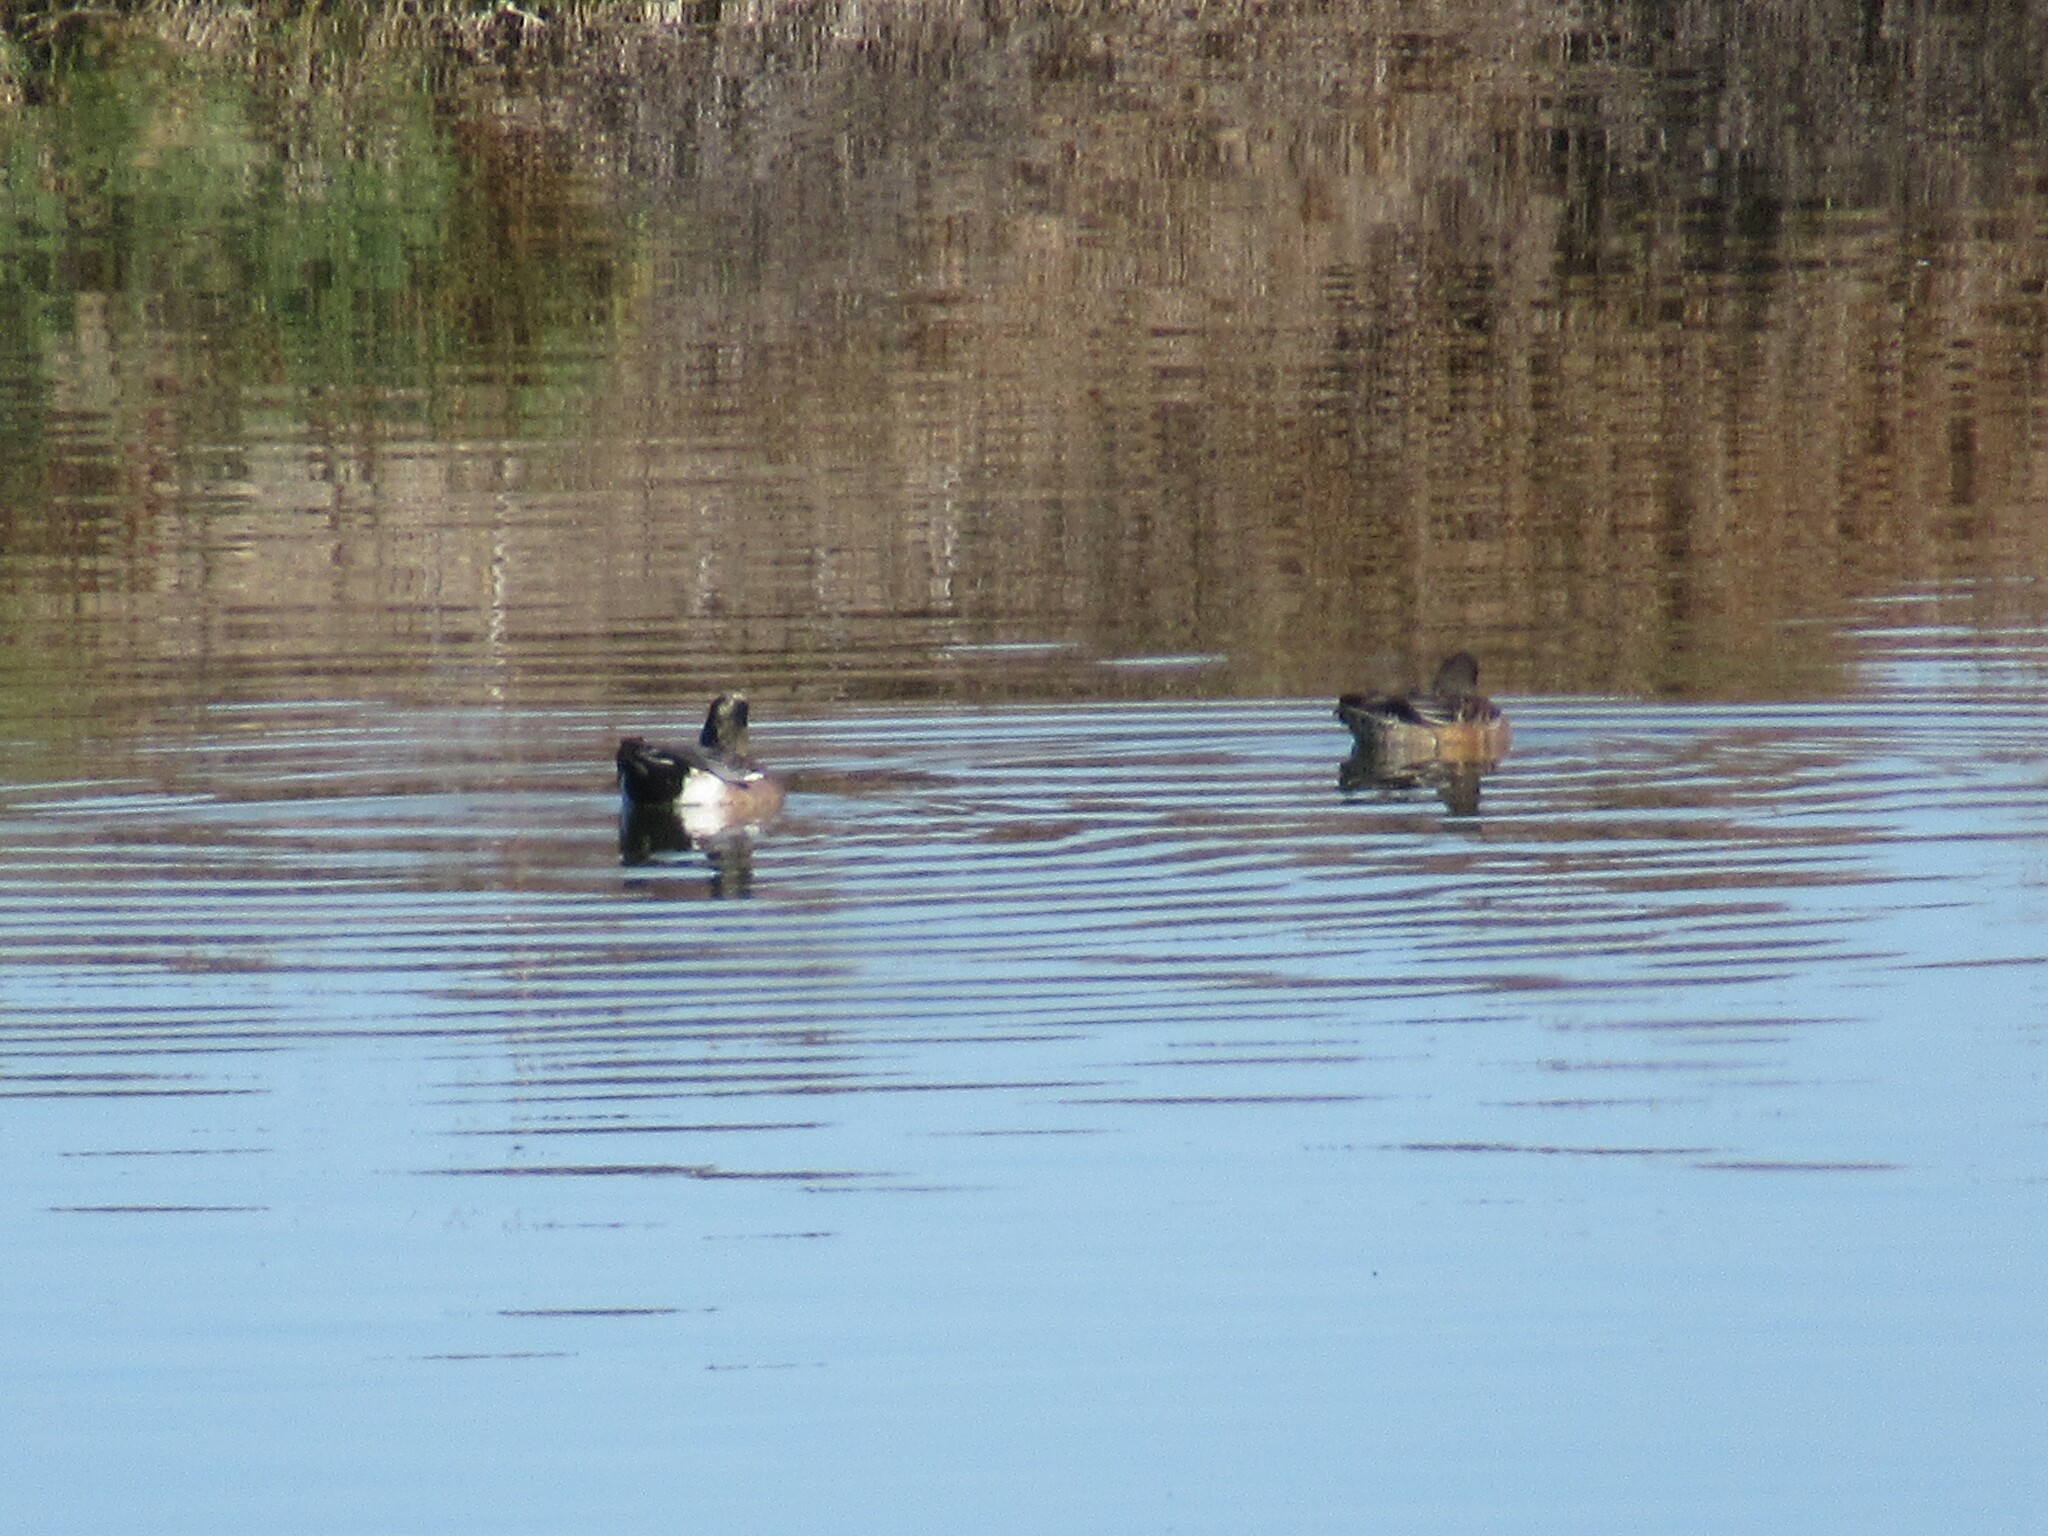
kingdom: Animalia
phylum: Chordata
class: Aves
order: Anseriformes
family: Anatidae
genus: Mareca
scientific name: Mareca americana
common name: American wigeon
